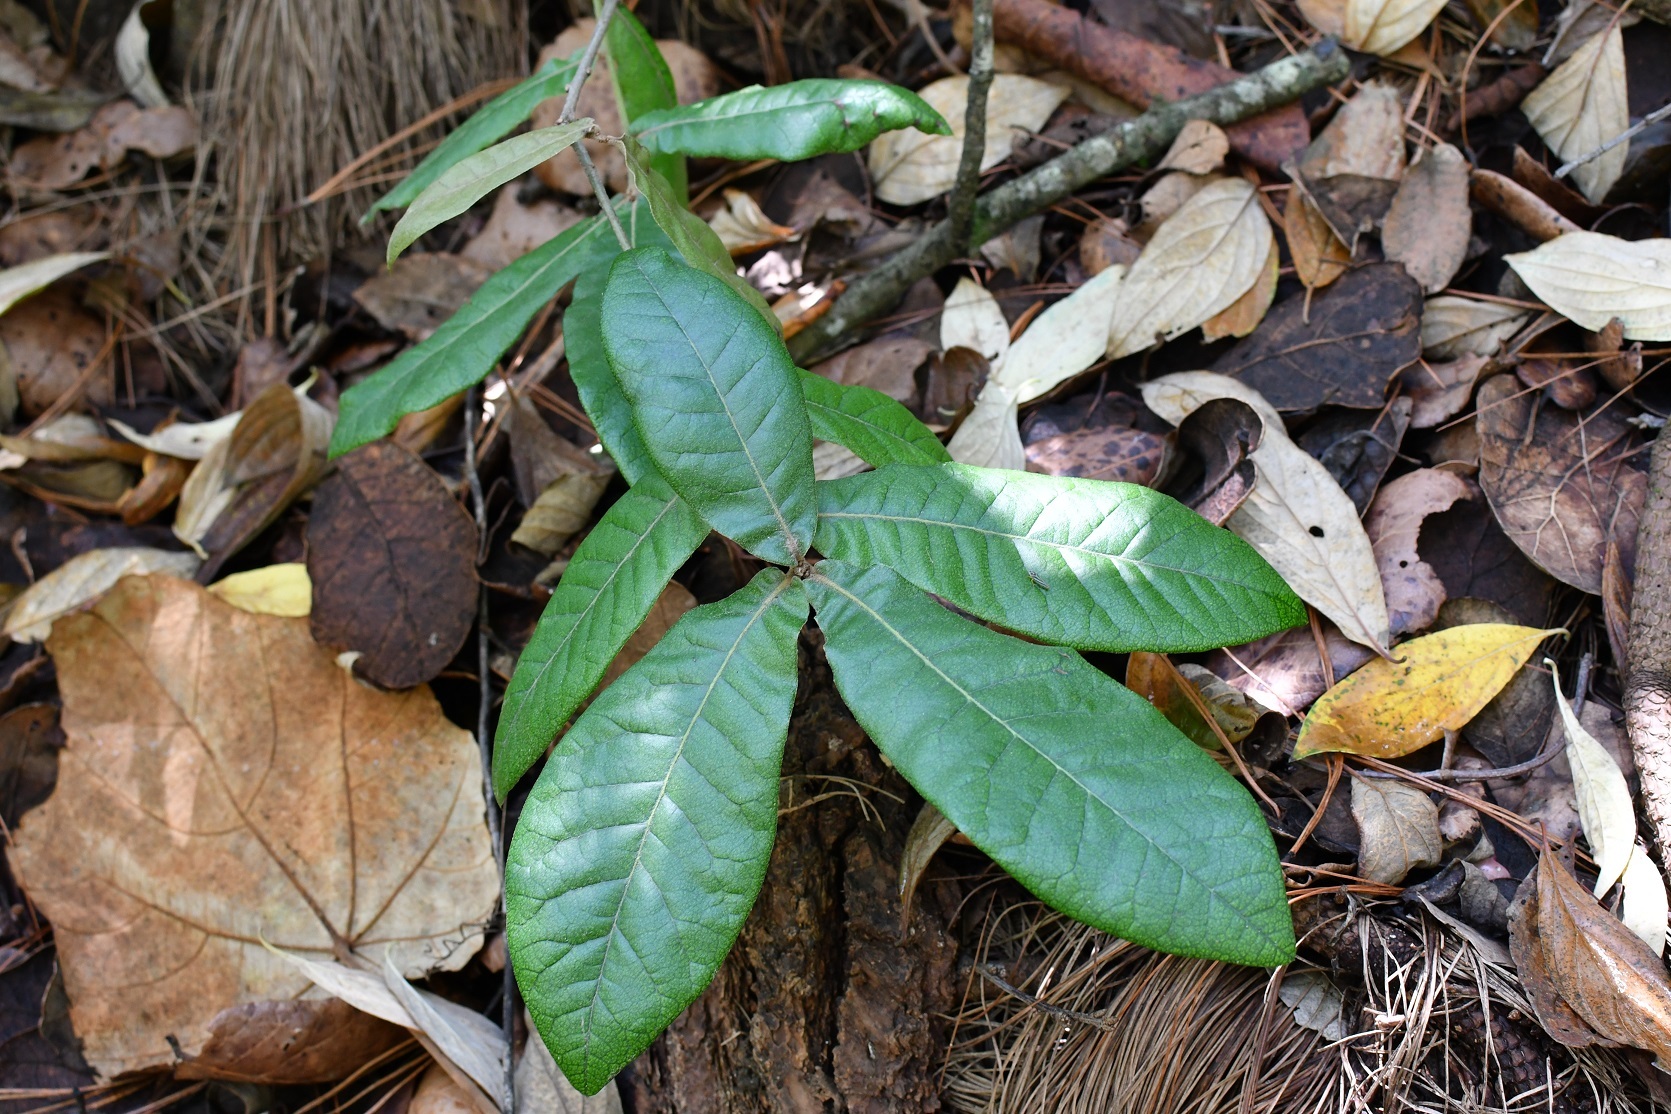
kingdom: Plantae
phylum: Tracheophyta
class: Magnoliopsida
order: Fagales
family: Fagaceae
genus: Quercus
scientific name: Quercus crispipilis
